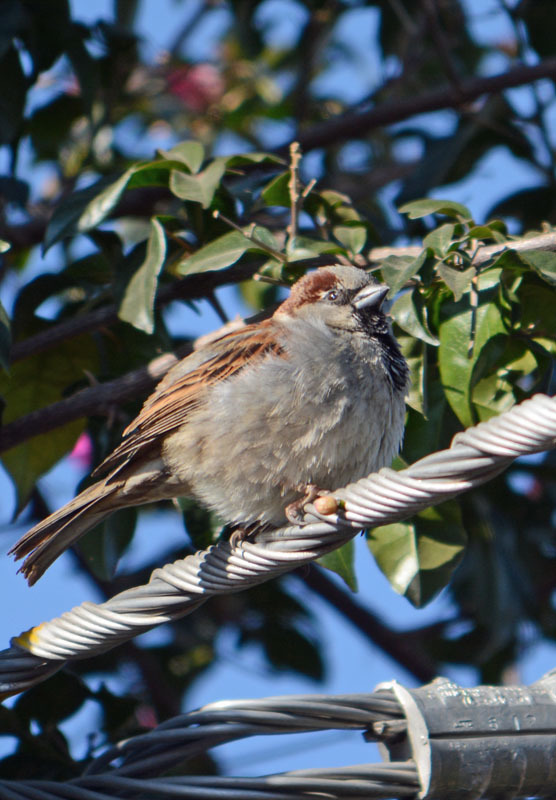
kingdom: Animalia
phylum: Chordata
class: Aves
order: Passeriformes
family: Passeridae
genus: Passer
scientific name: Passer domesticus
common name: House sparrow
